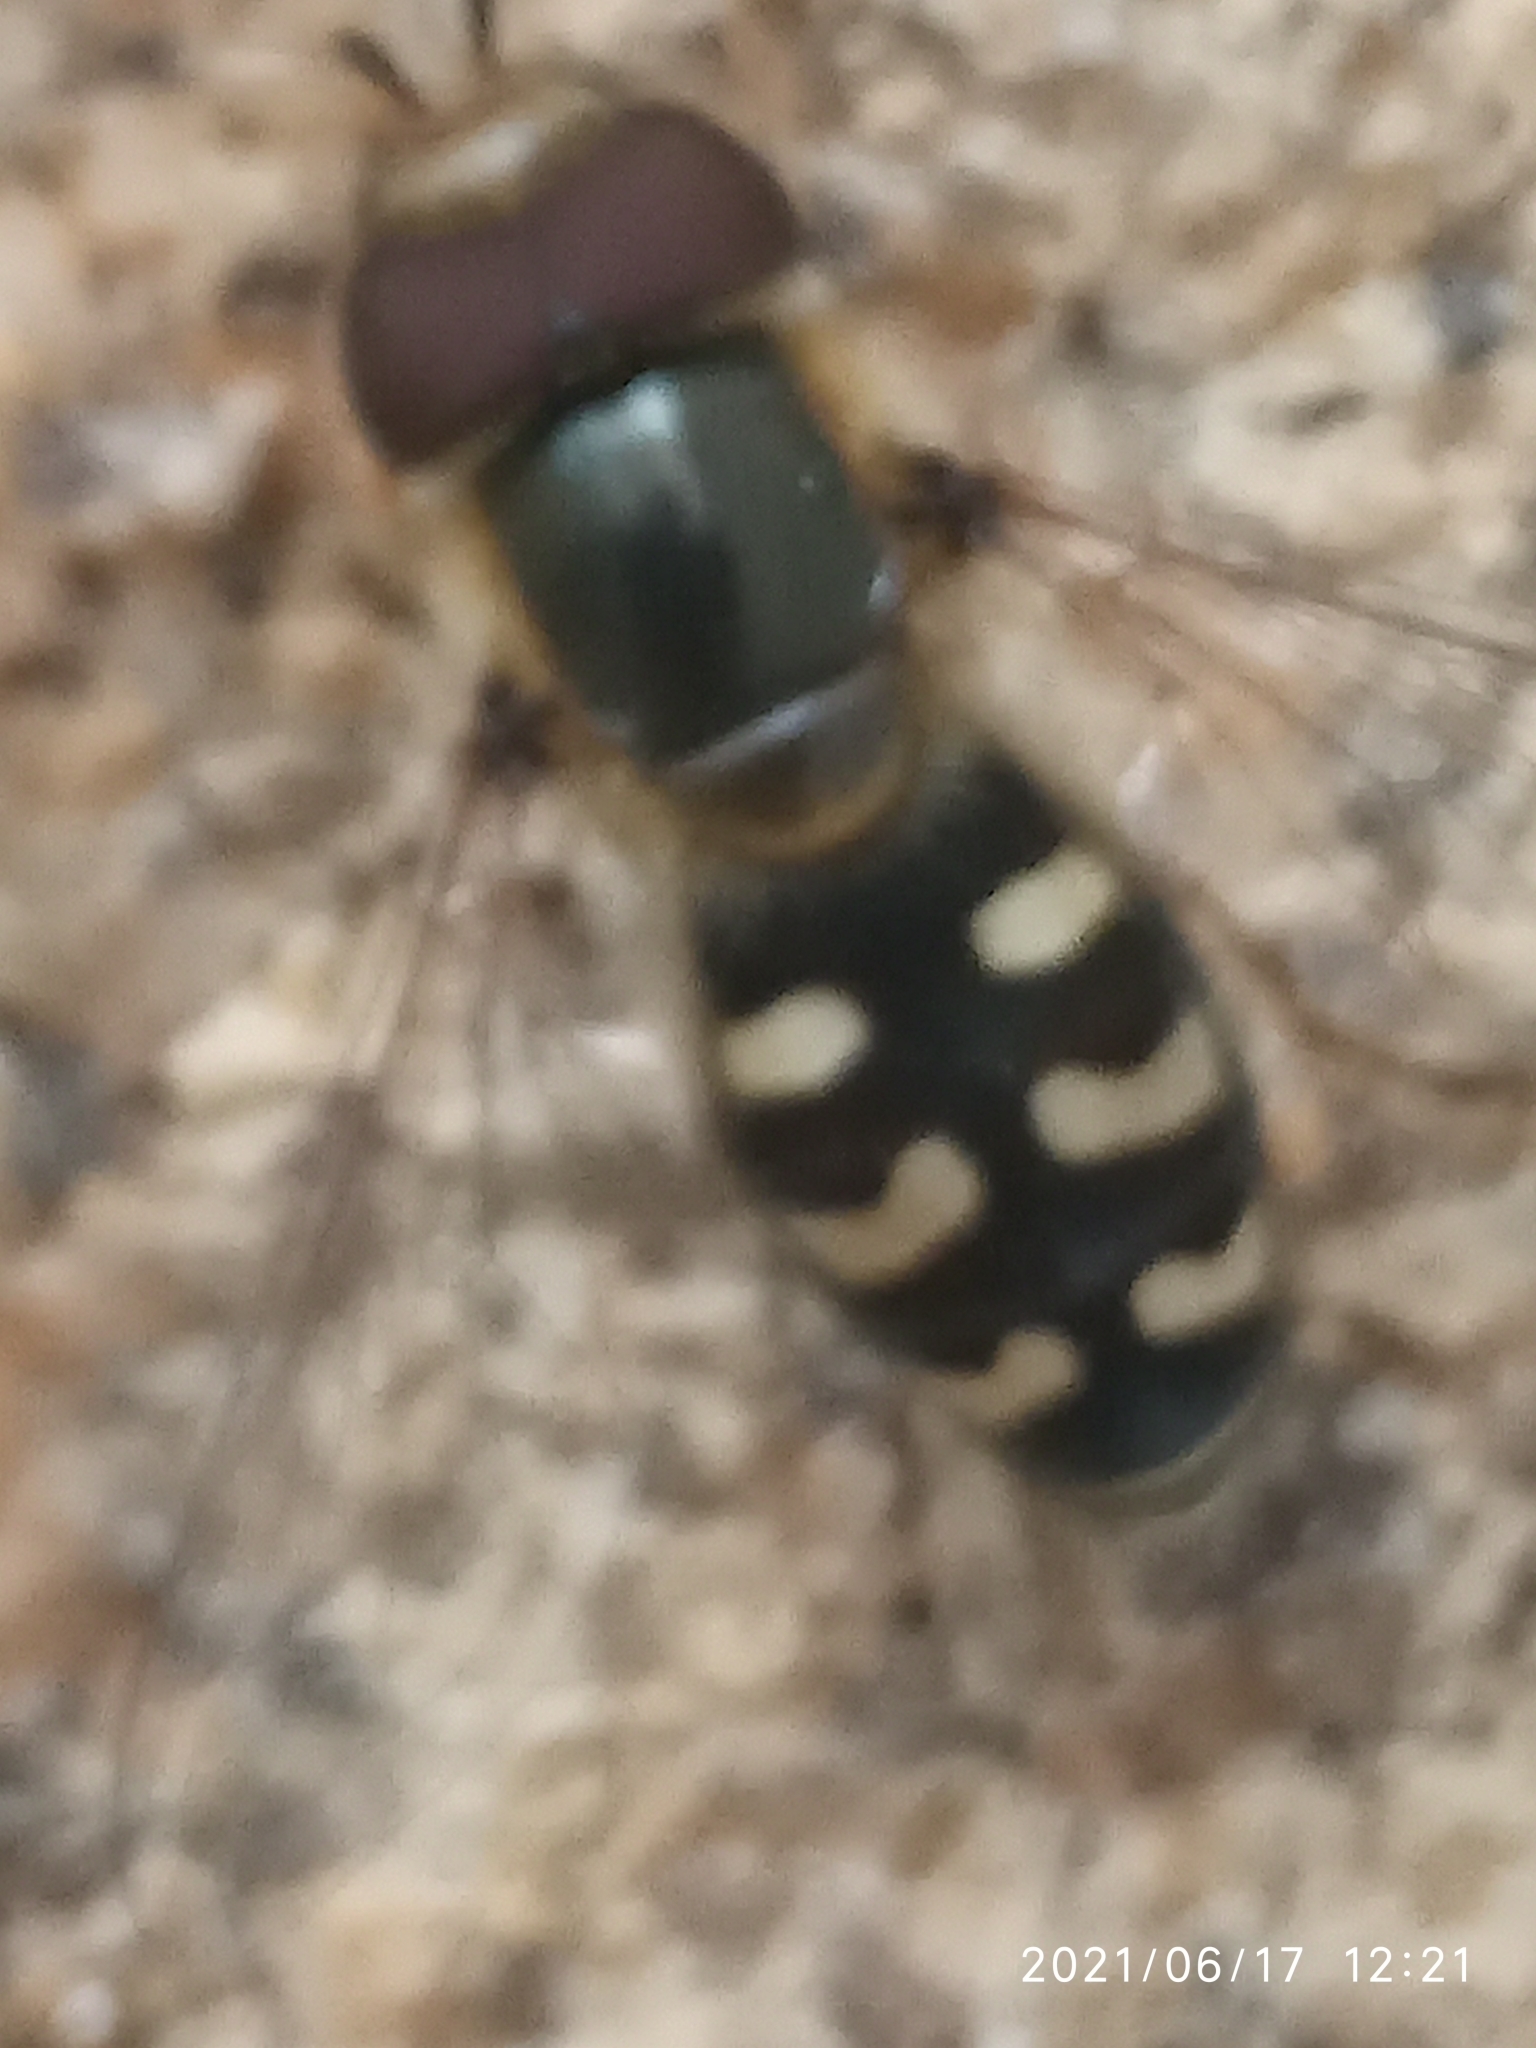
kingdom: Animalia
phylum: Arthropoda
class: Insecta
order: Diptera
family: Syrphidae
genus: Scaeva
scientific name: Scaeva pyrastri
